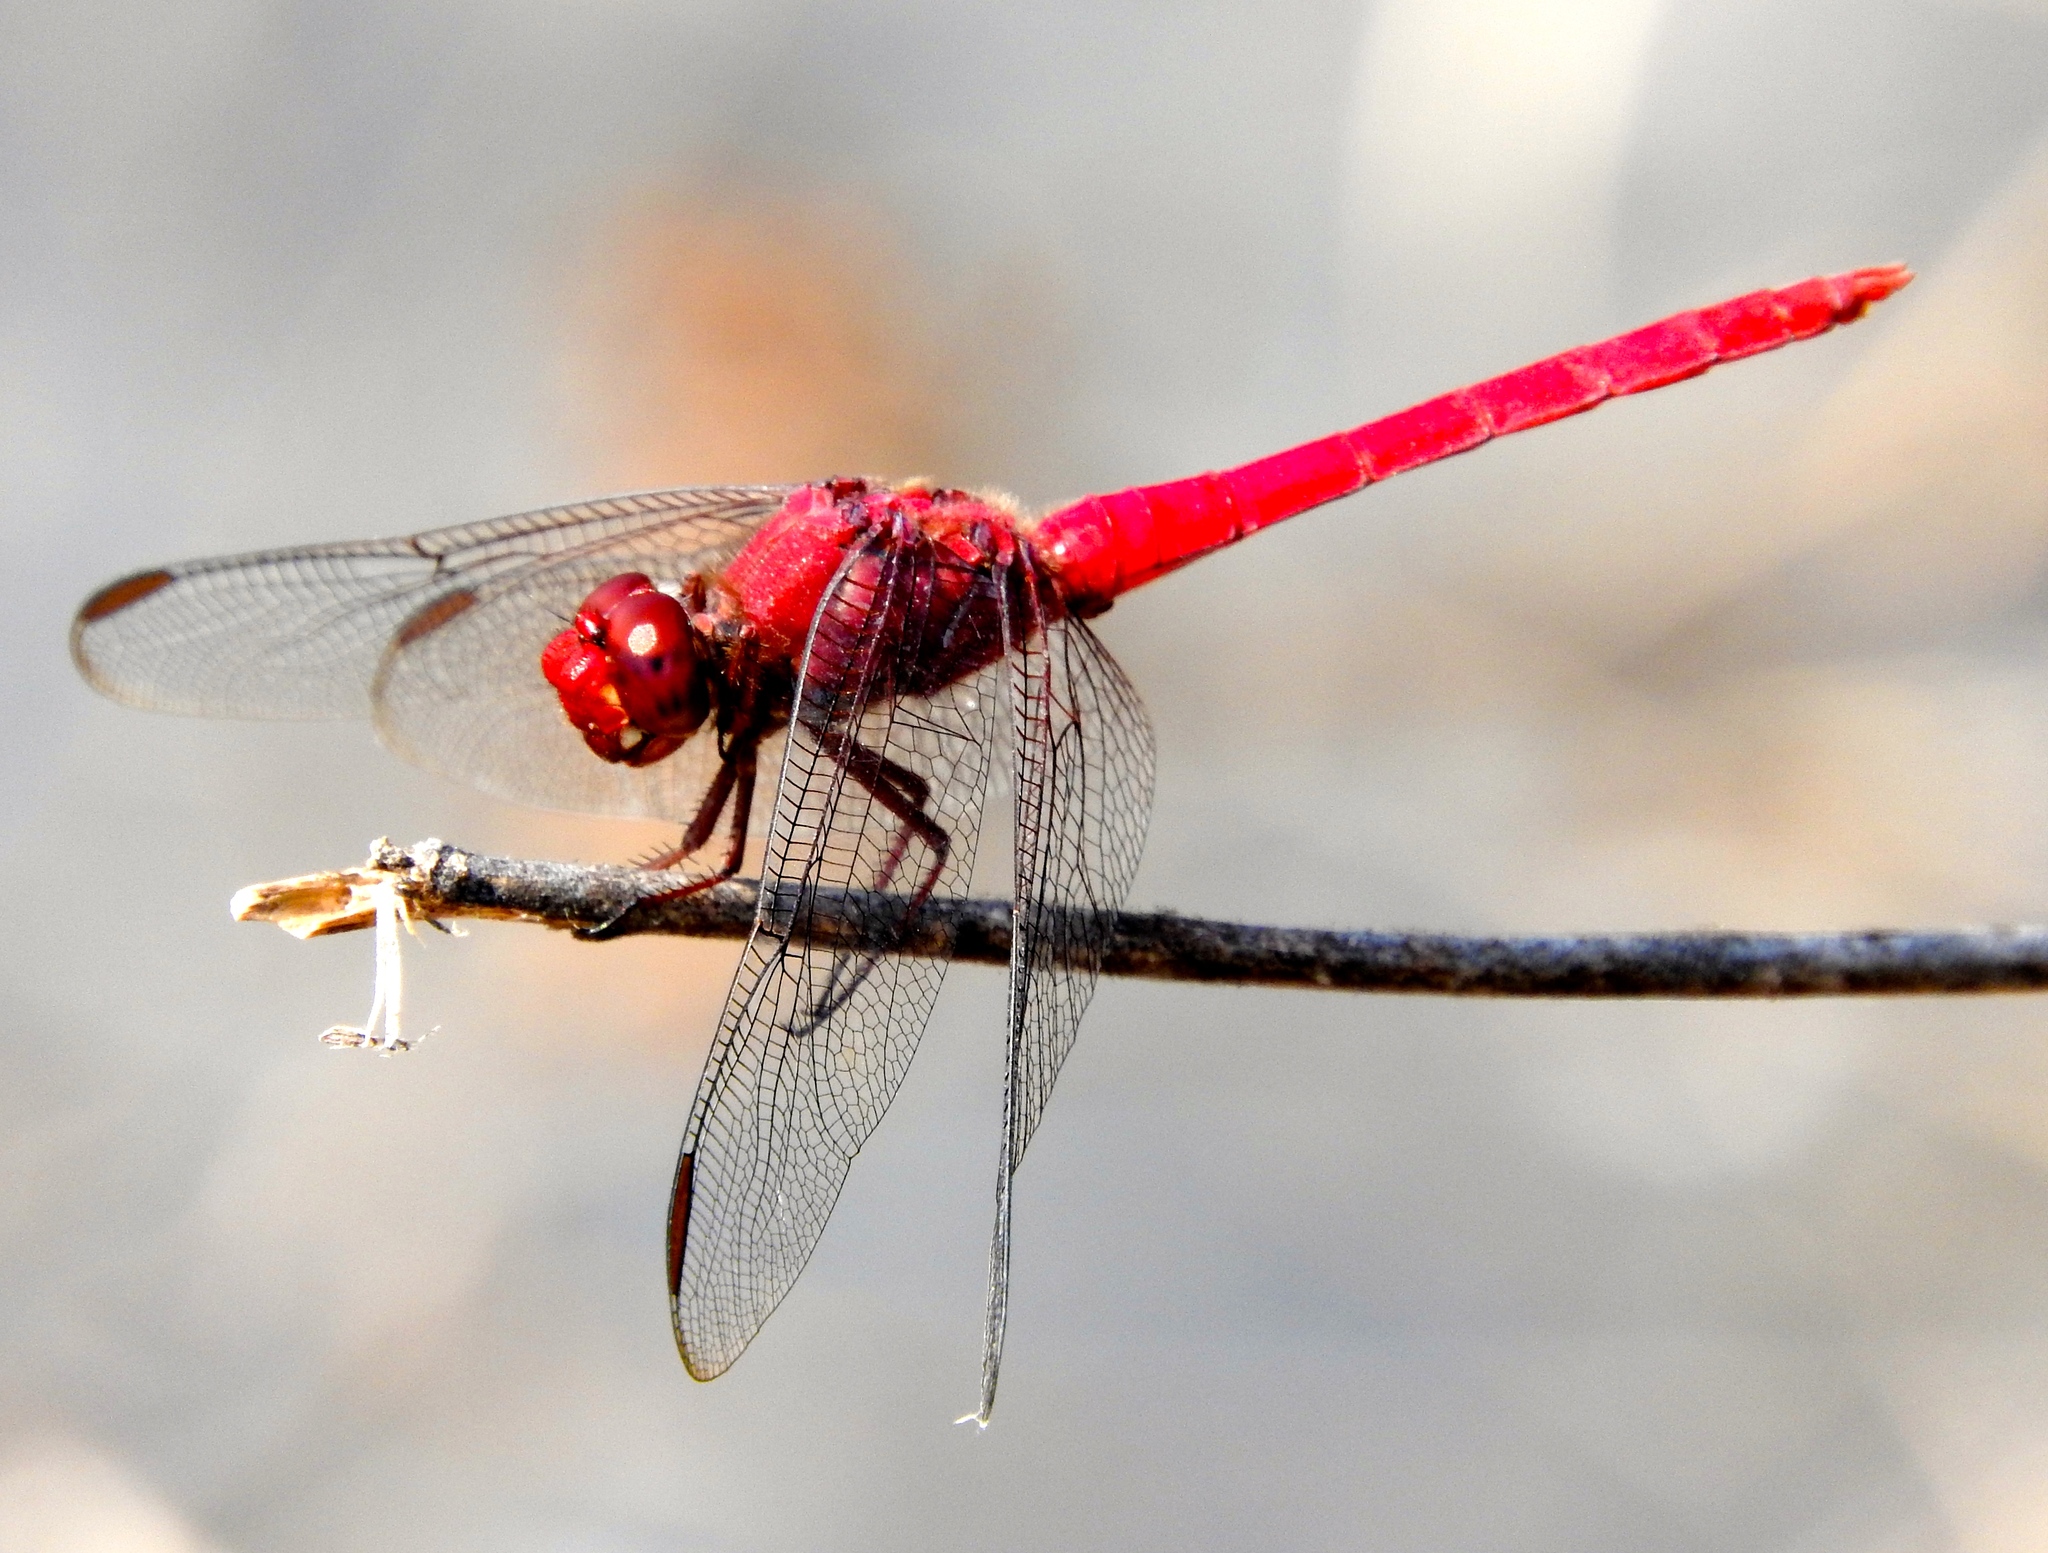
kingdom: Animalia
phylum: Arthropoda
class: Insecta
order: Odonata
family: Libellulidae
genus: Orthemis
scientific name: Orthemis discolor
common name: Carmine skimmer
